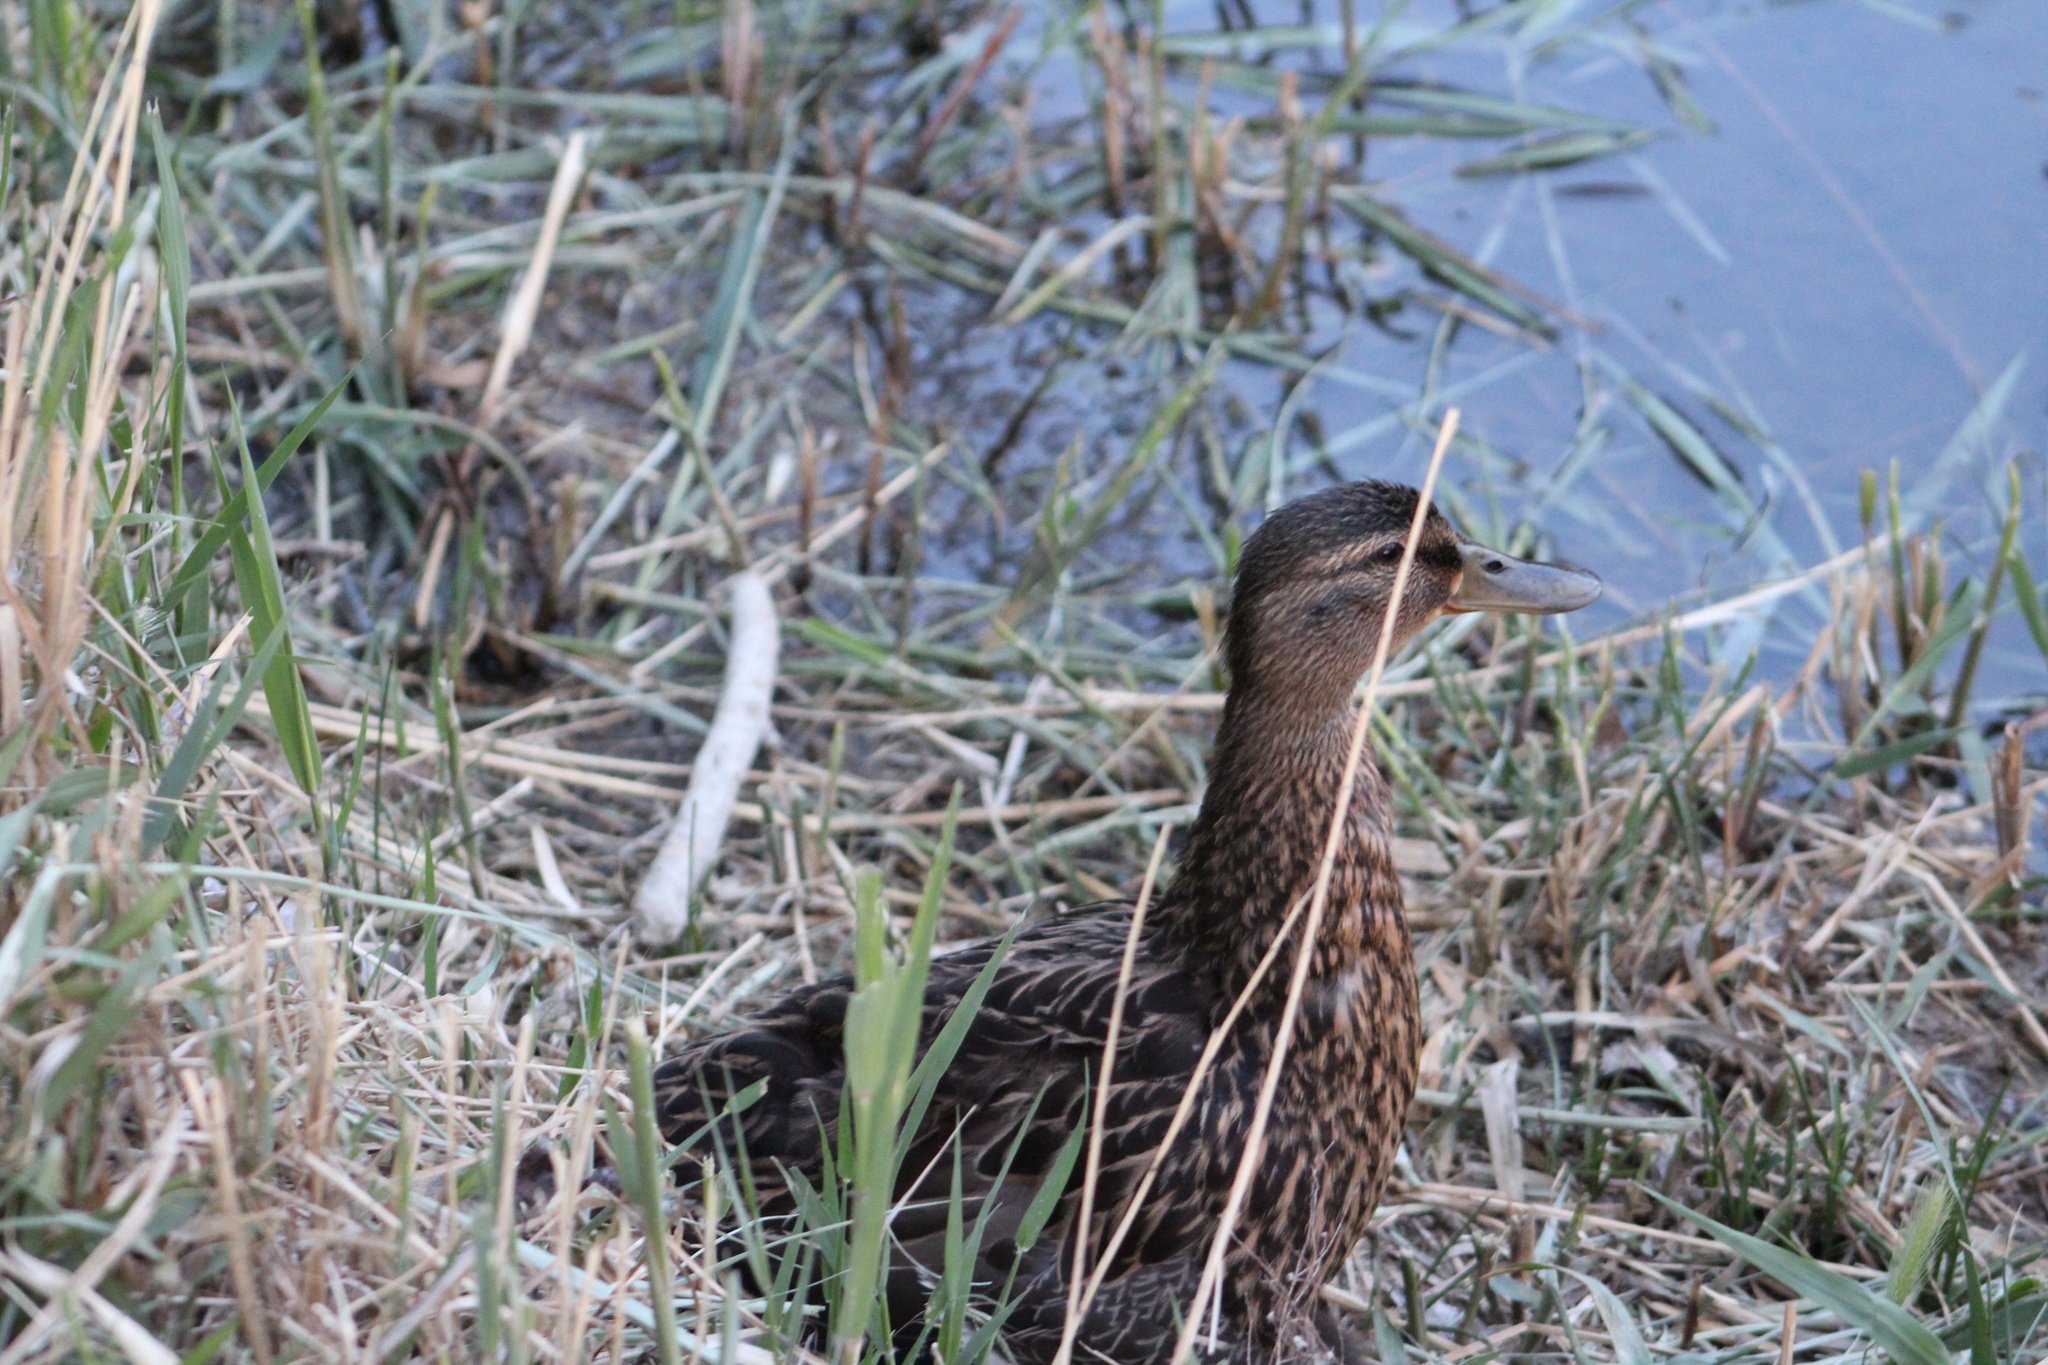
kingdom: Animalia
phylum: Chordata
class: Aves
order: Anseriformes
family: Anatidae
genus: Anas
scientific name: Anas platyrhynchos
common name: Mallard
